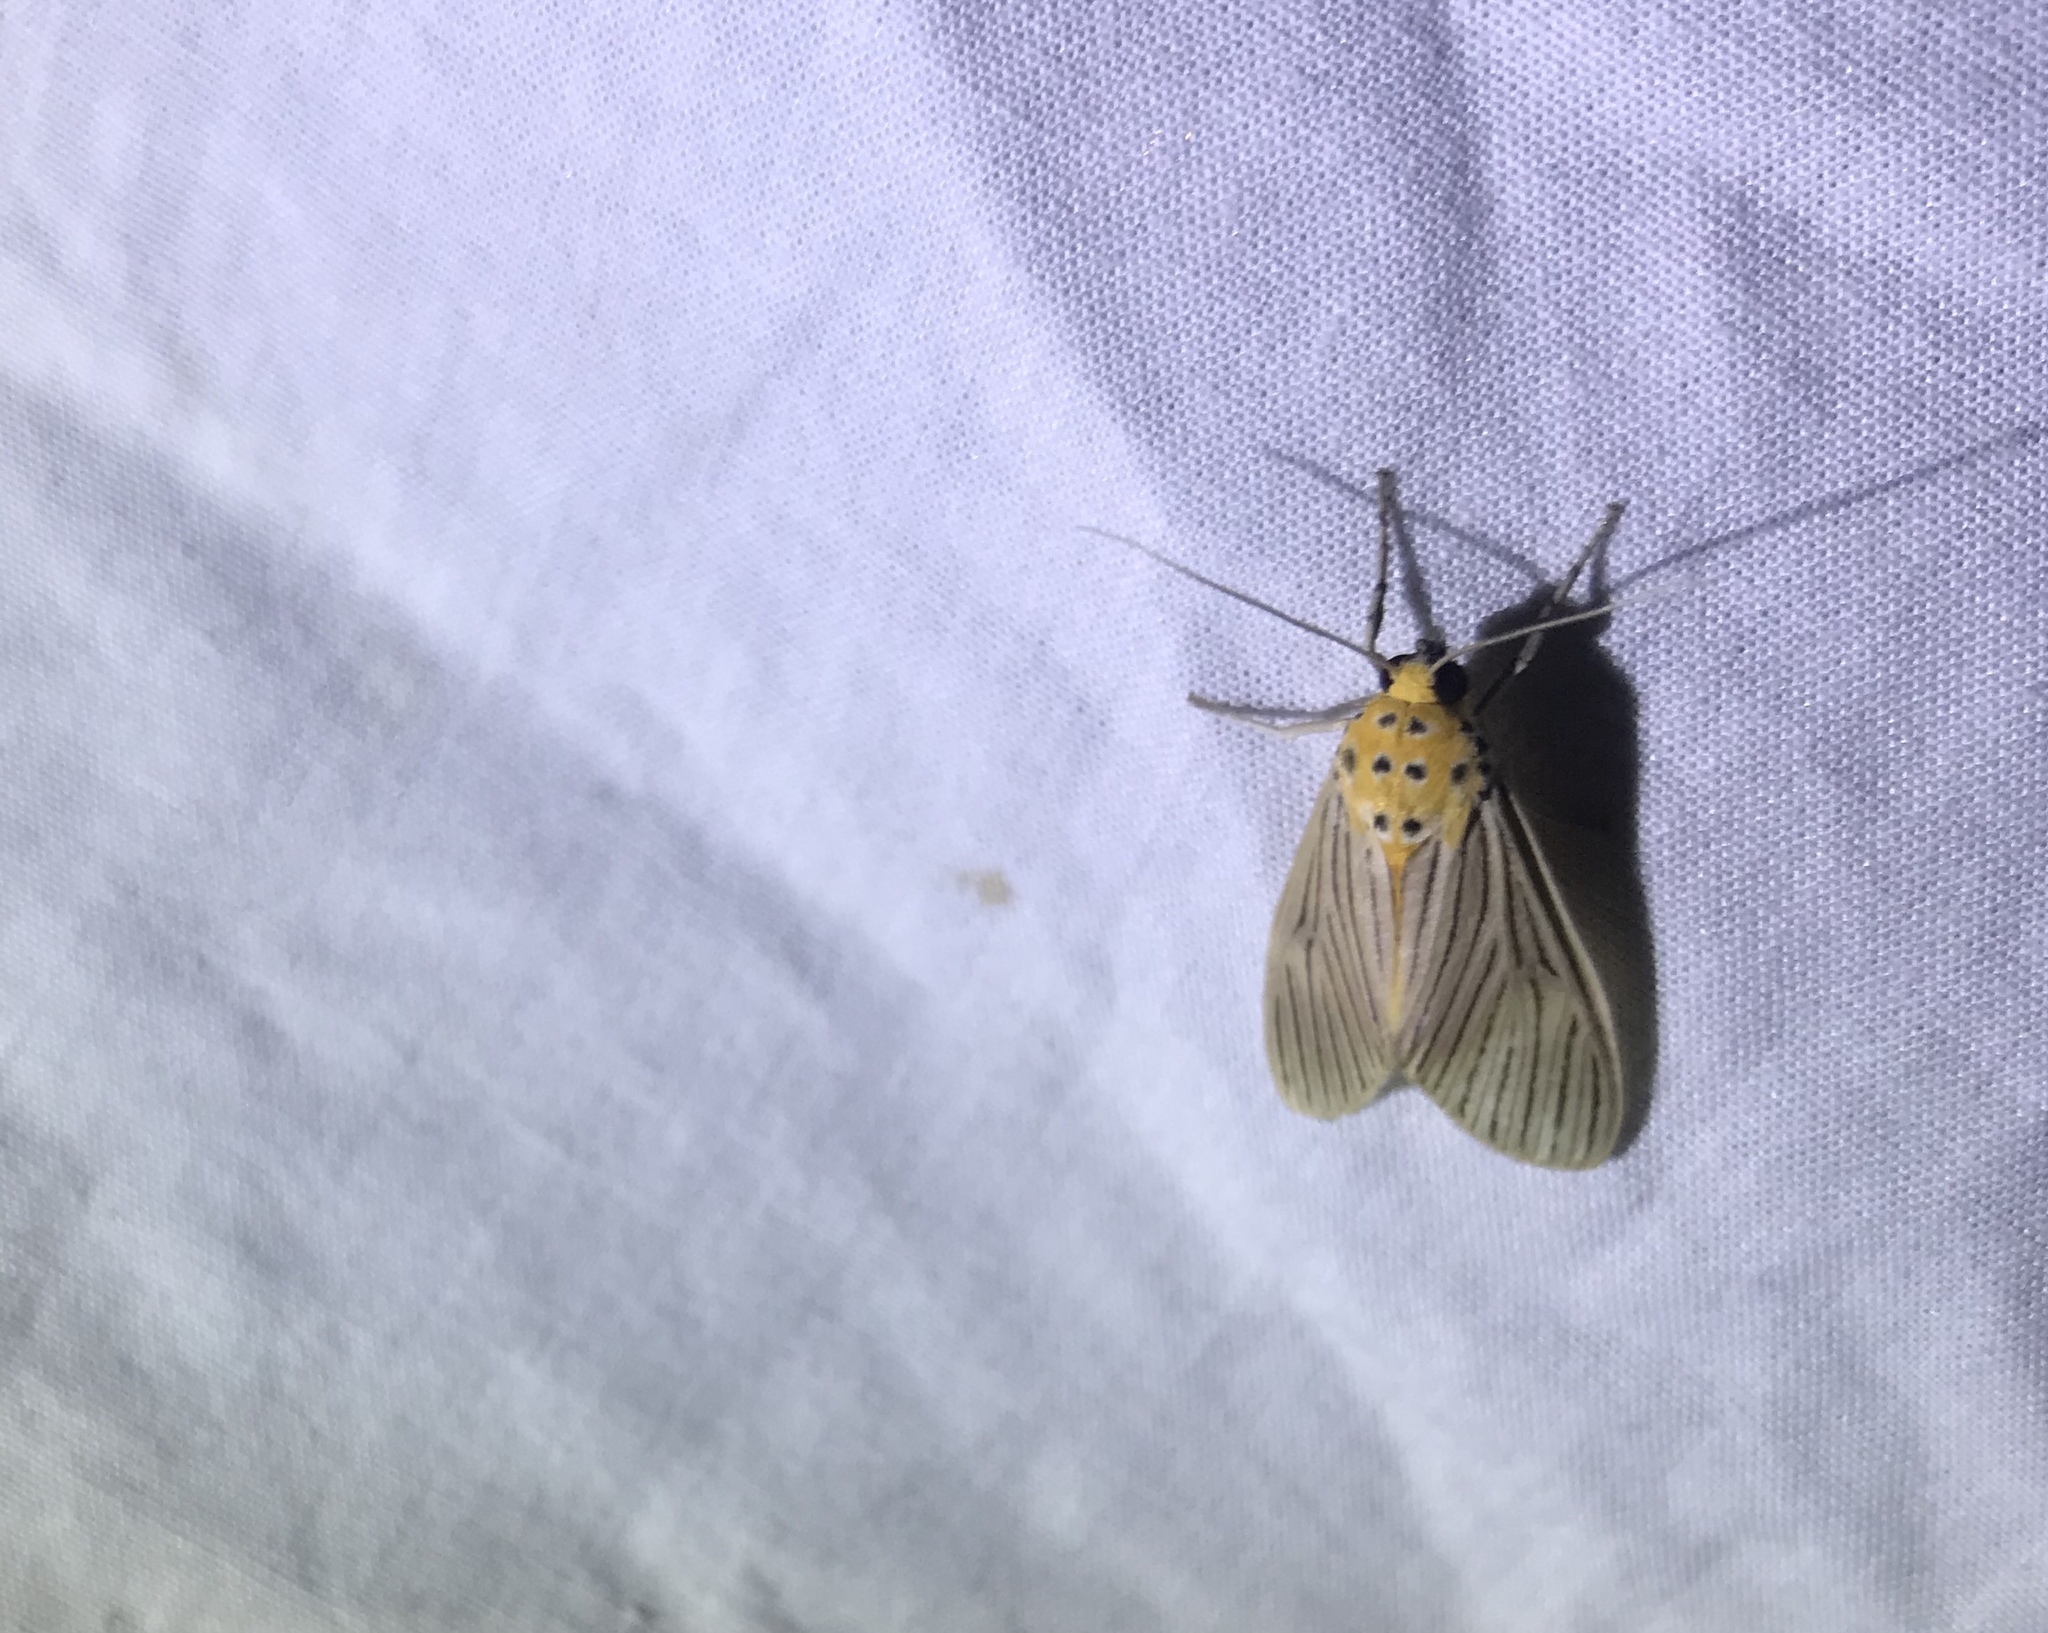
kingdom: Animalia
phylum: Arthropoda
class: Insecta
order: Lepidoptera
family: Erebidae
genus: Phaeomolis
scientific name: Phaeomolis lineatus
